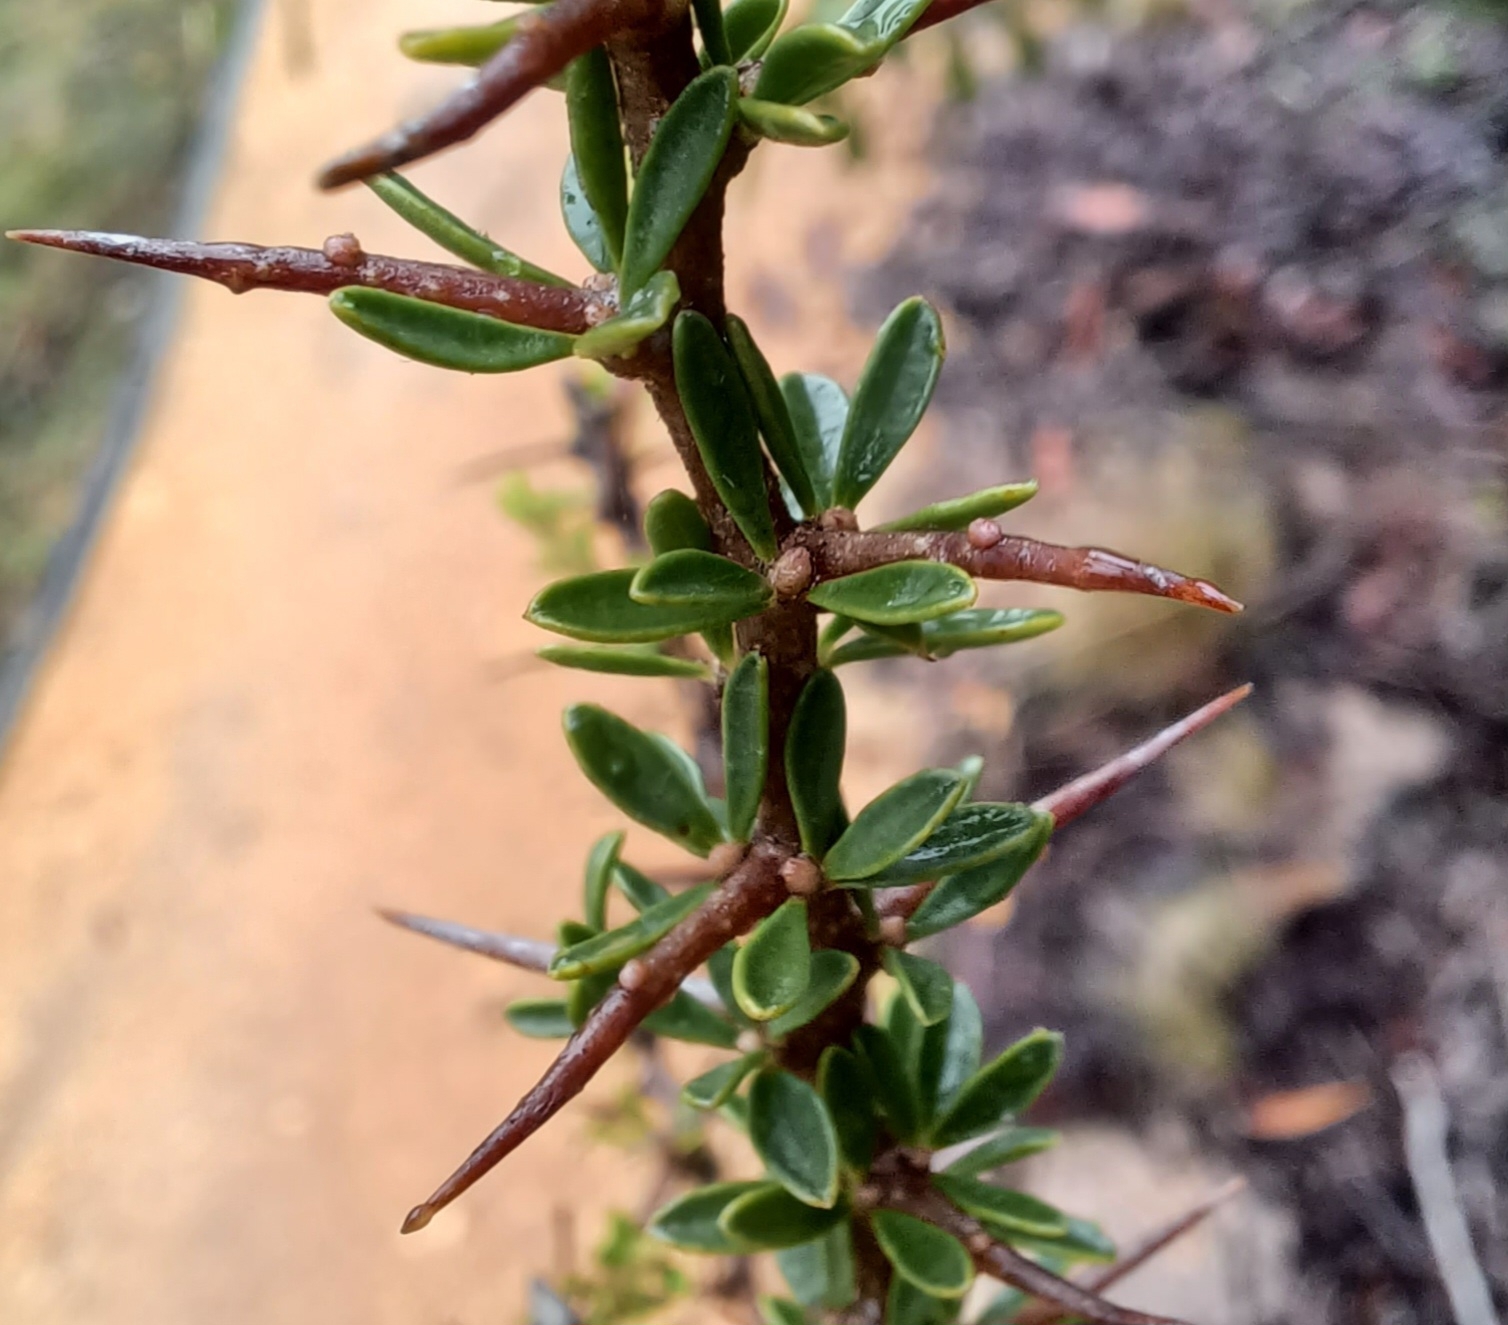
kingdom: Plantae
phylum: Tracheophyta
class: Magnoliopsida
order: Apiales
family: Pittosporaceae
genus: Bursaria
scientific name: Bursaria spinosa
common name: Australian blackthorn
